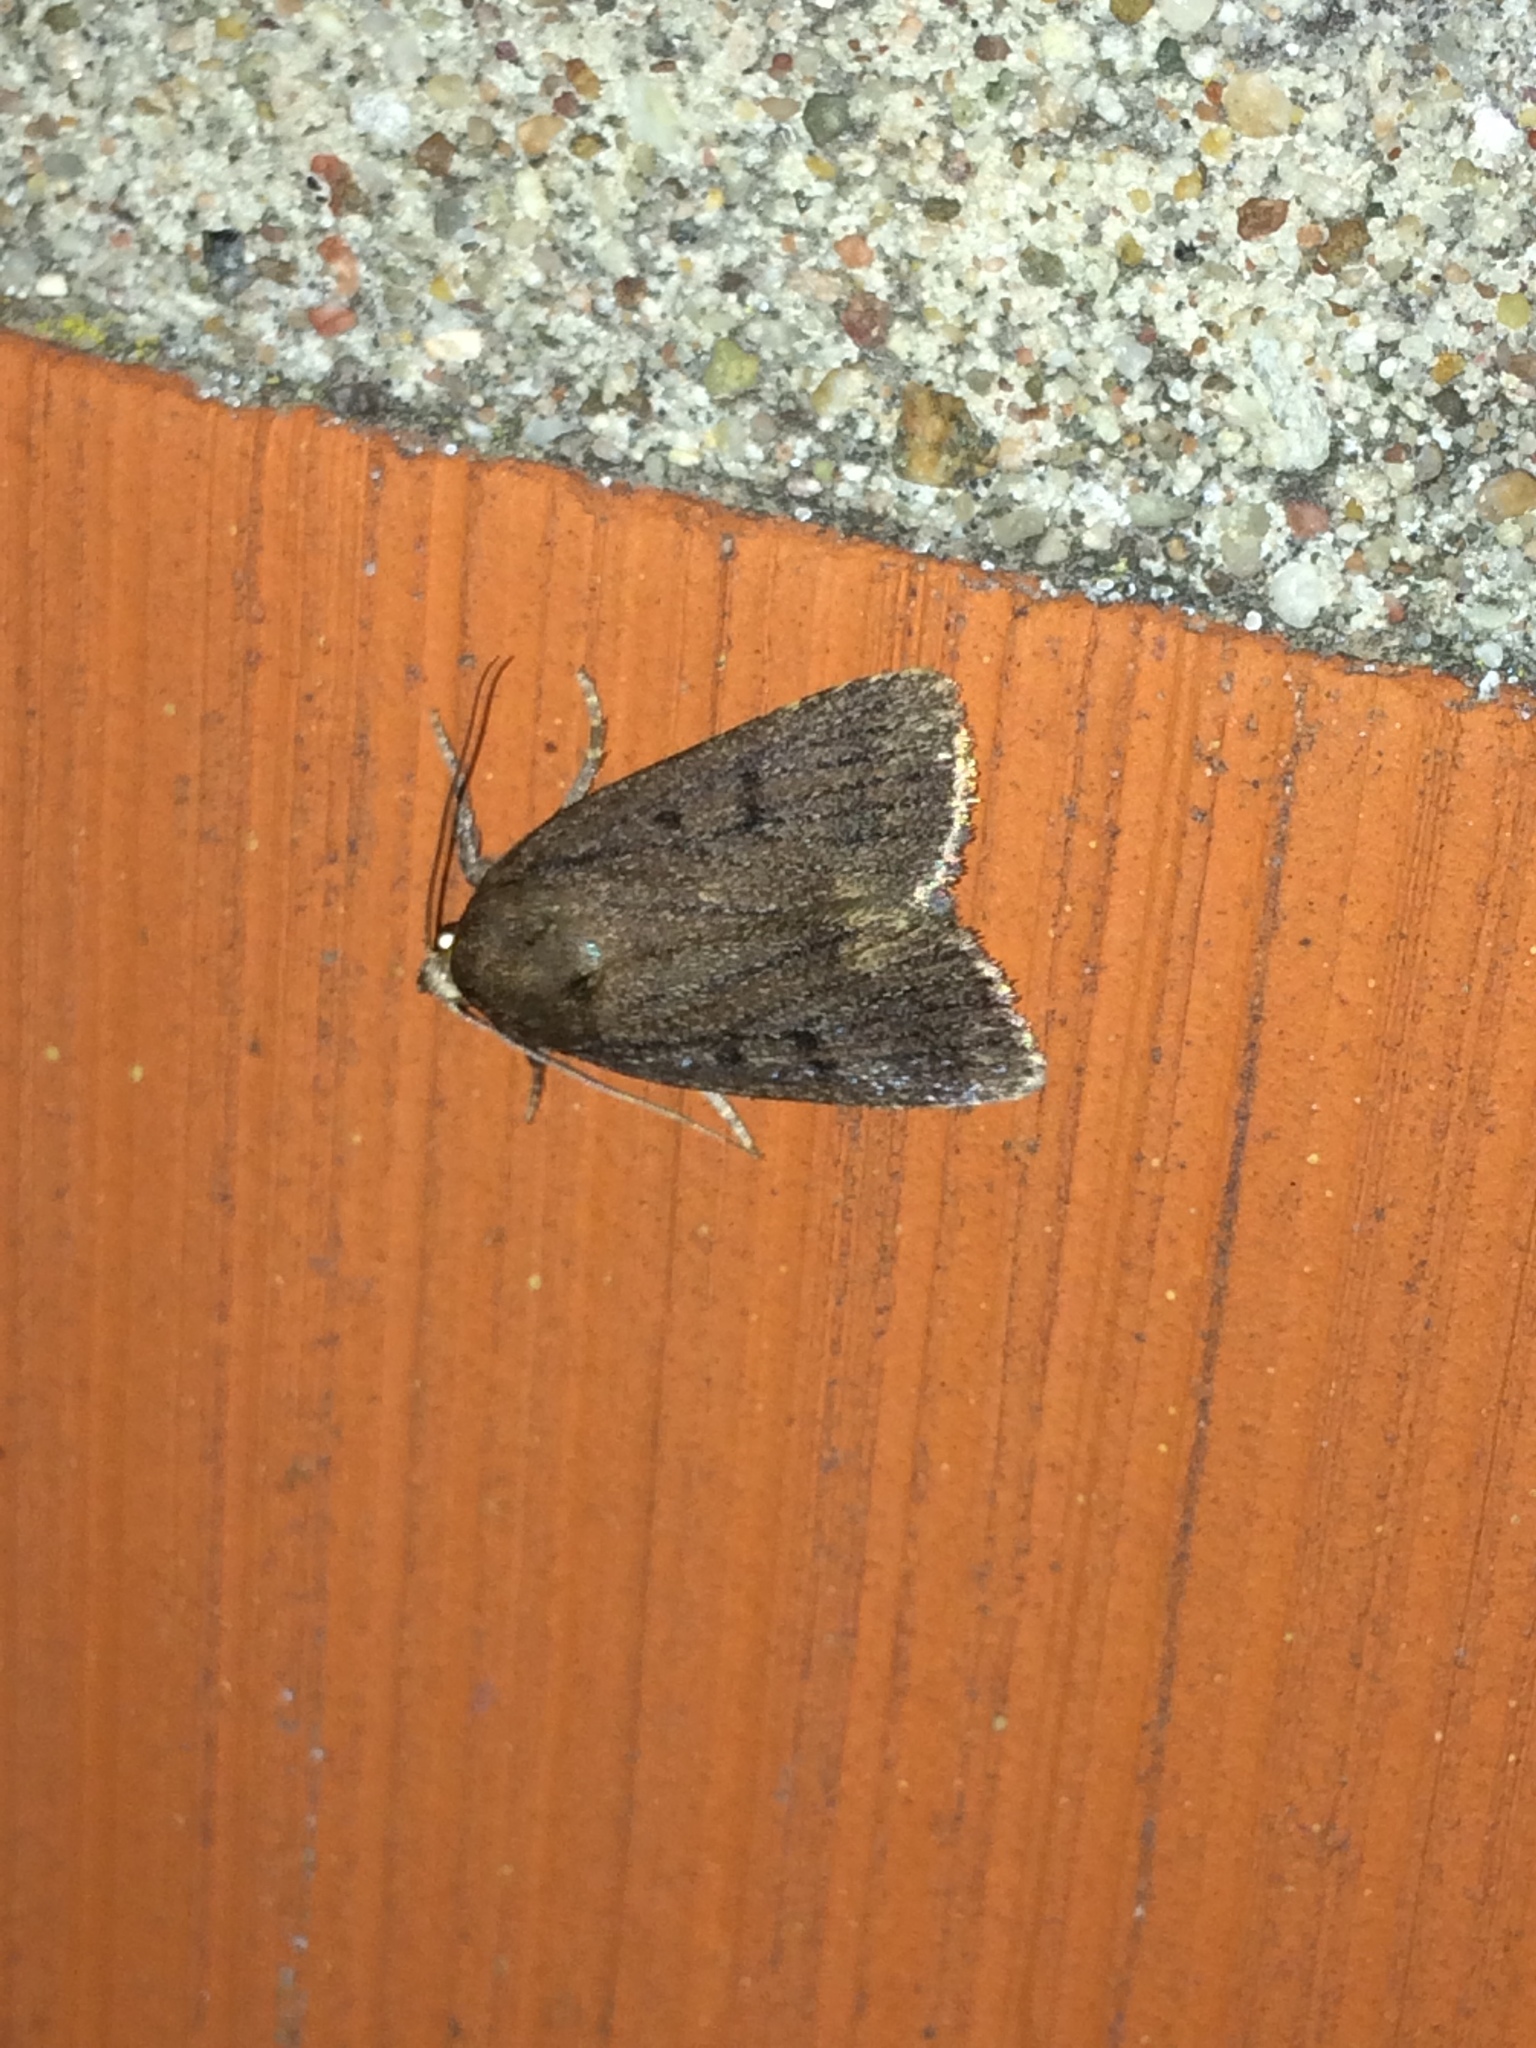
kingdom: Animalia
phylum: Arthropoda
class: Insecta
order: Lepidoptera
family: Noctuidae
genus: Amphipyra
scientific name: Amphipyra tragopoginis
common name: Mouse moth
